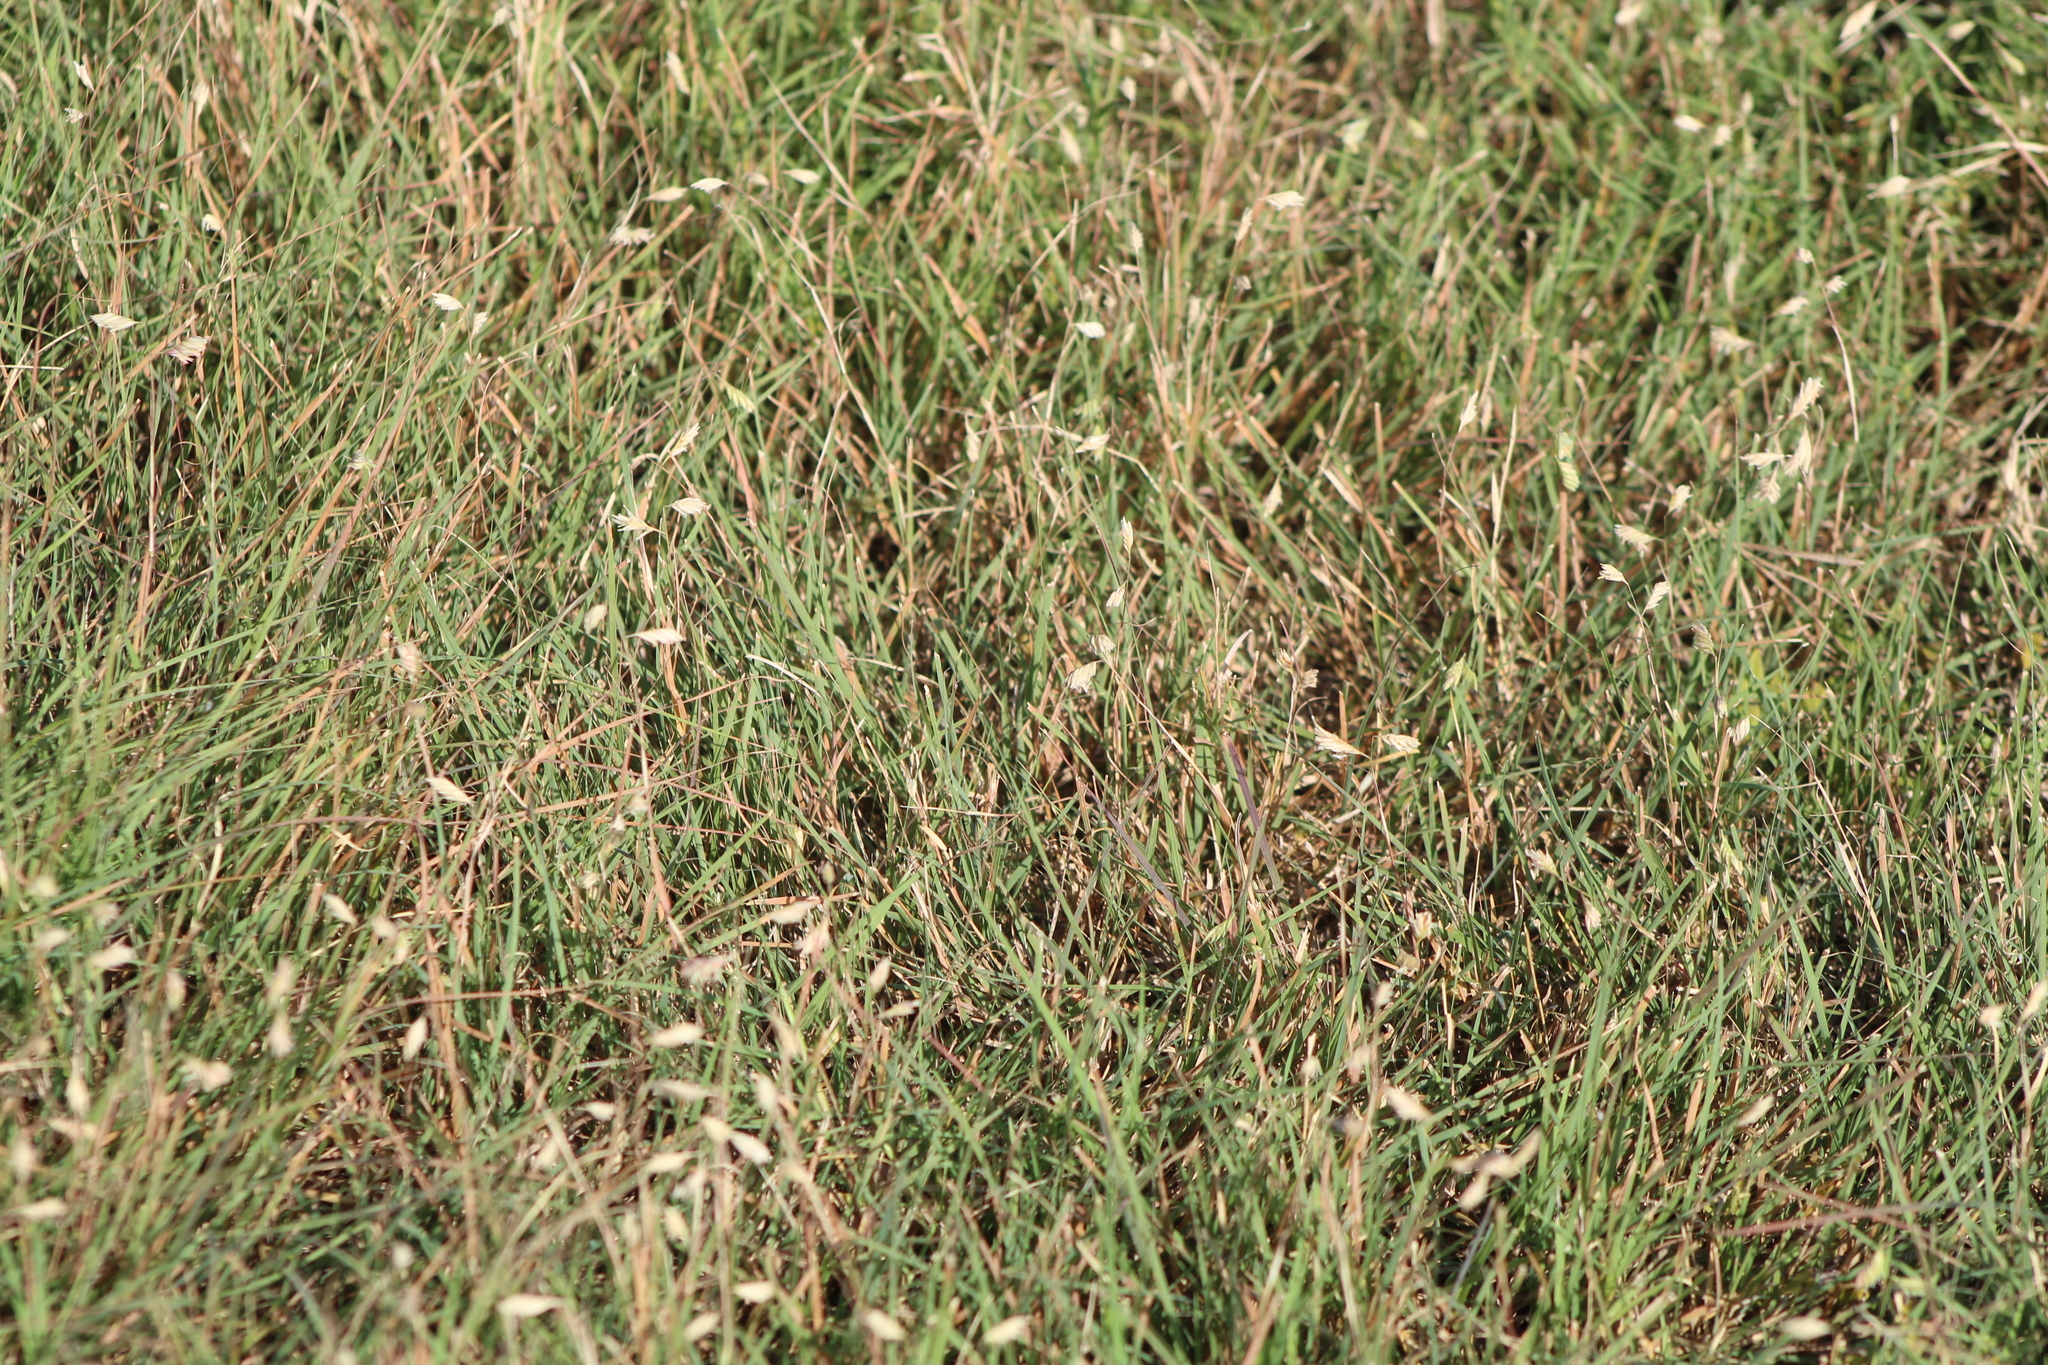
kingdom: Plantae
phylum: Tracheophyta
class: Liliopsida
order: Poales
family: Poaceae
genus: Bouteloua
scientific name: Bouteloua dactyloides
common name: Buffalo grass
